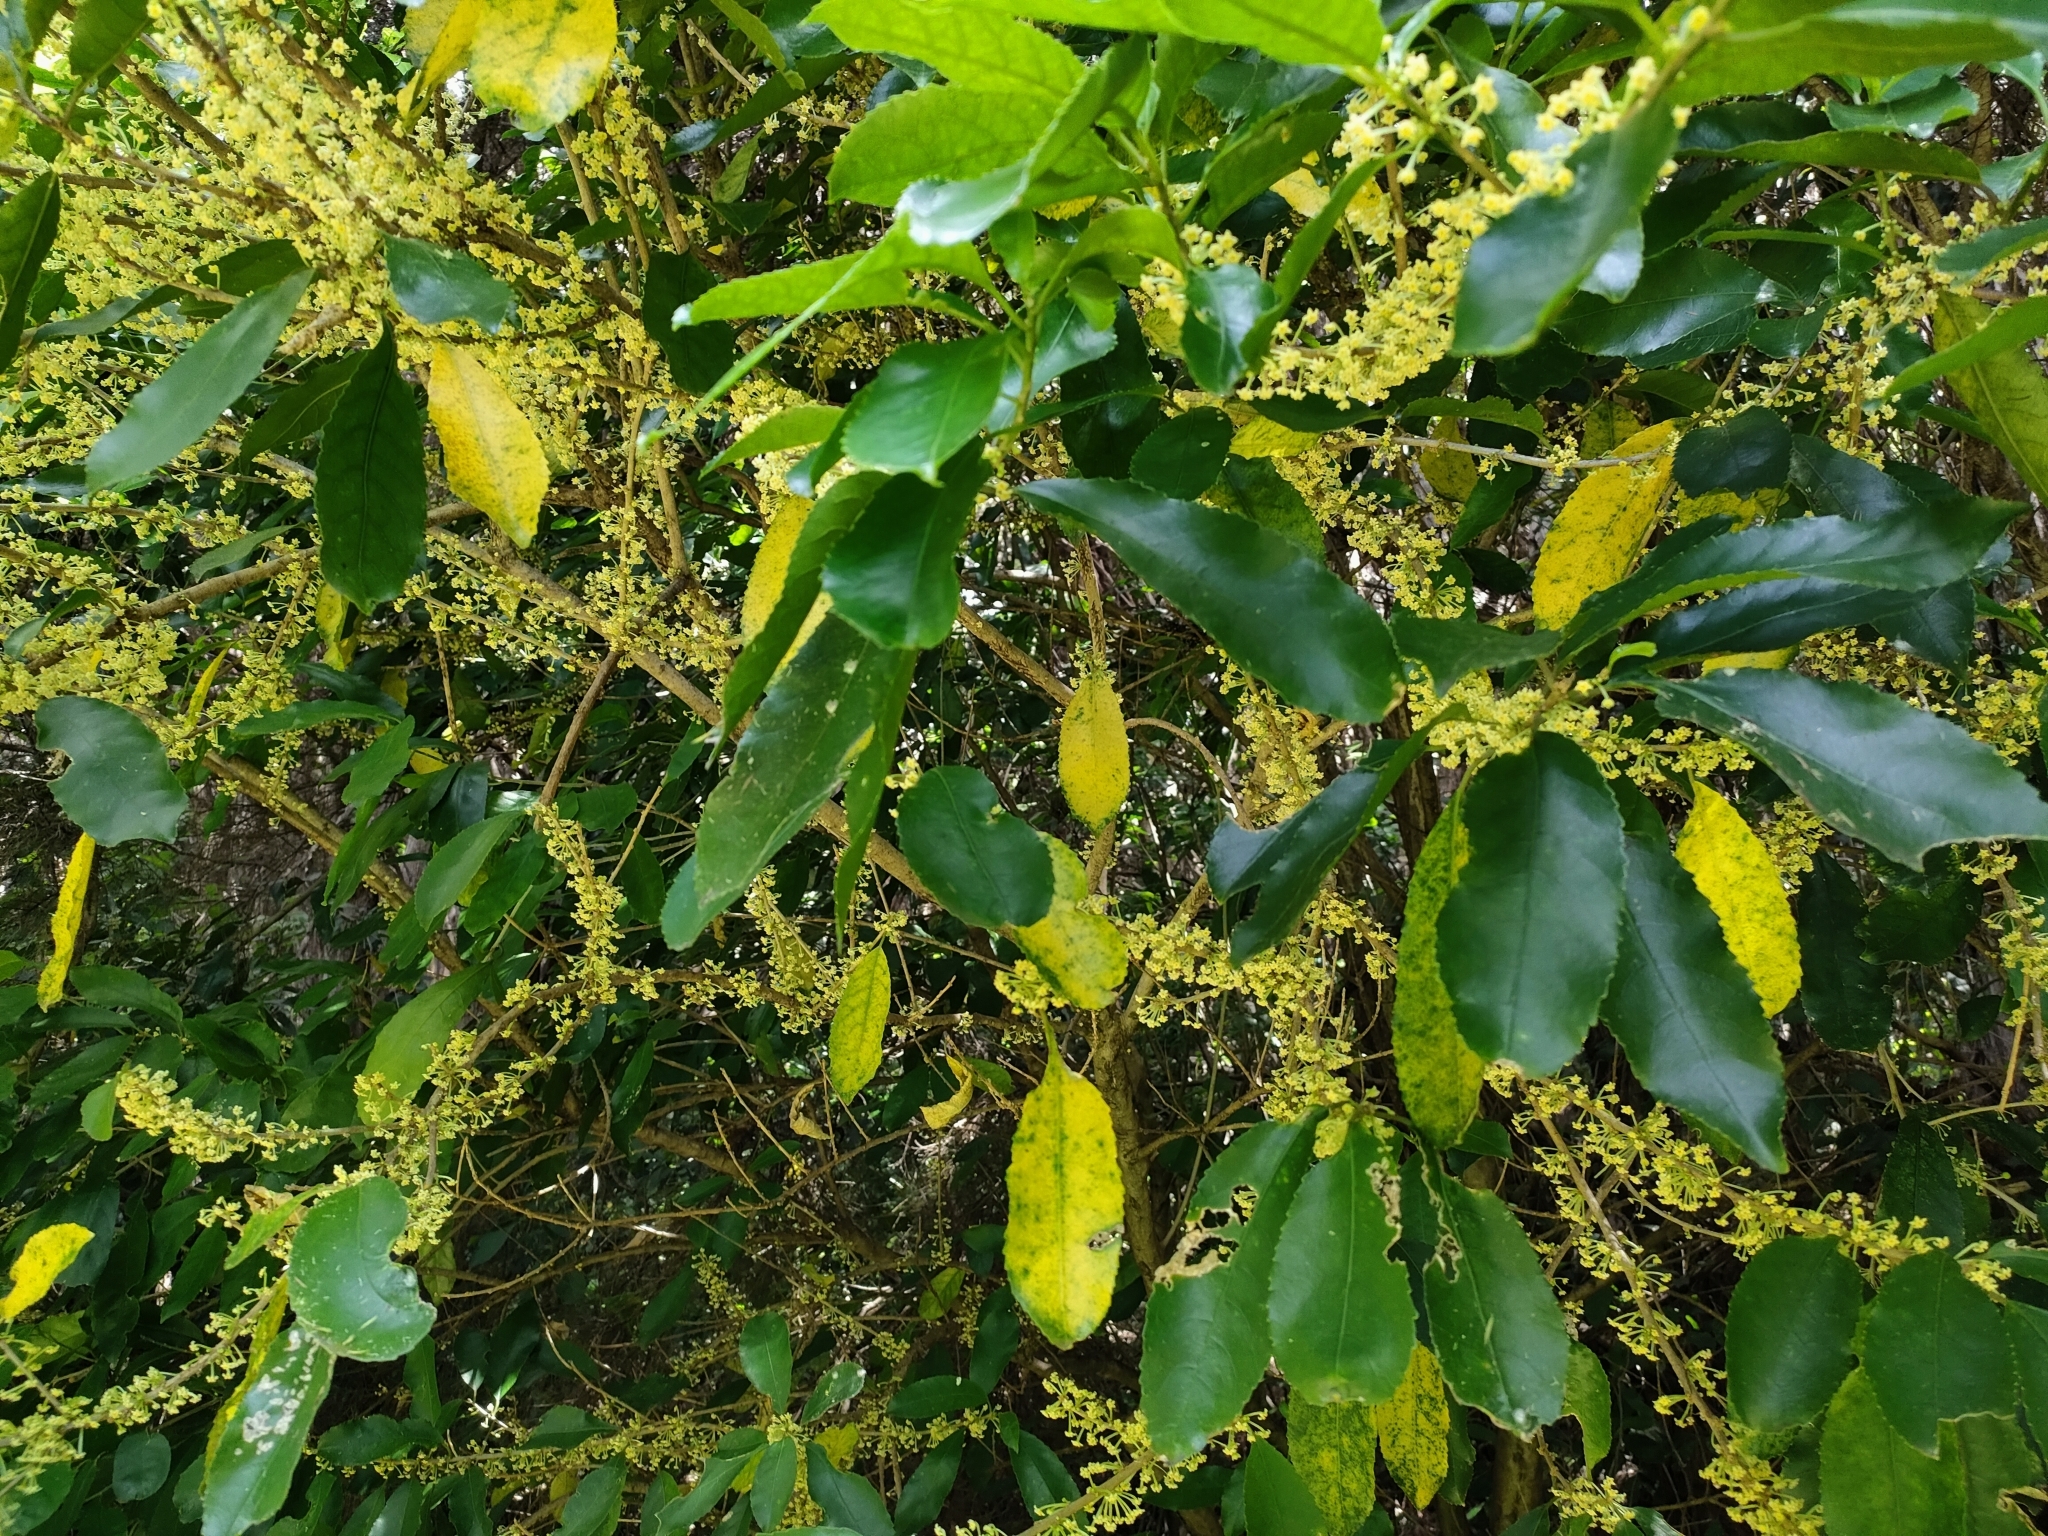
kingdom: Plantae
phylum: Tracheophyta
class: Magnoliopsida
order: Malpighiales
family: Violaceae
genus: Melicytus
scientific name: Melicytus ramiflorus
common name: Mahoe
